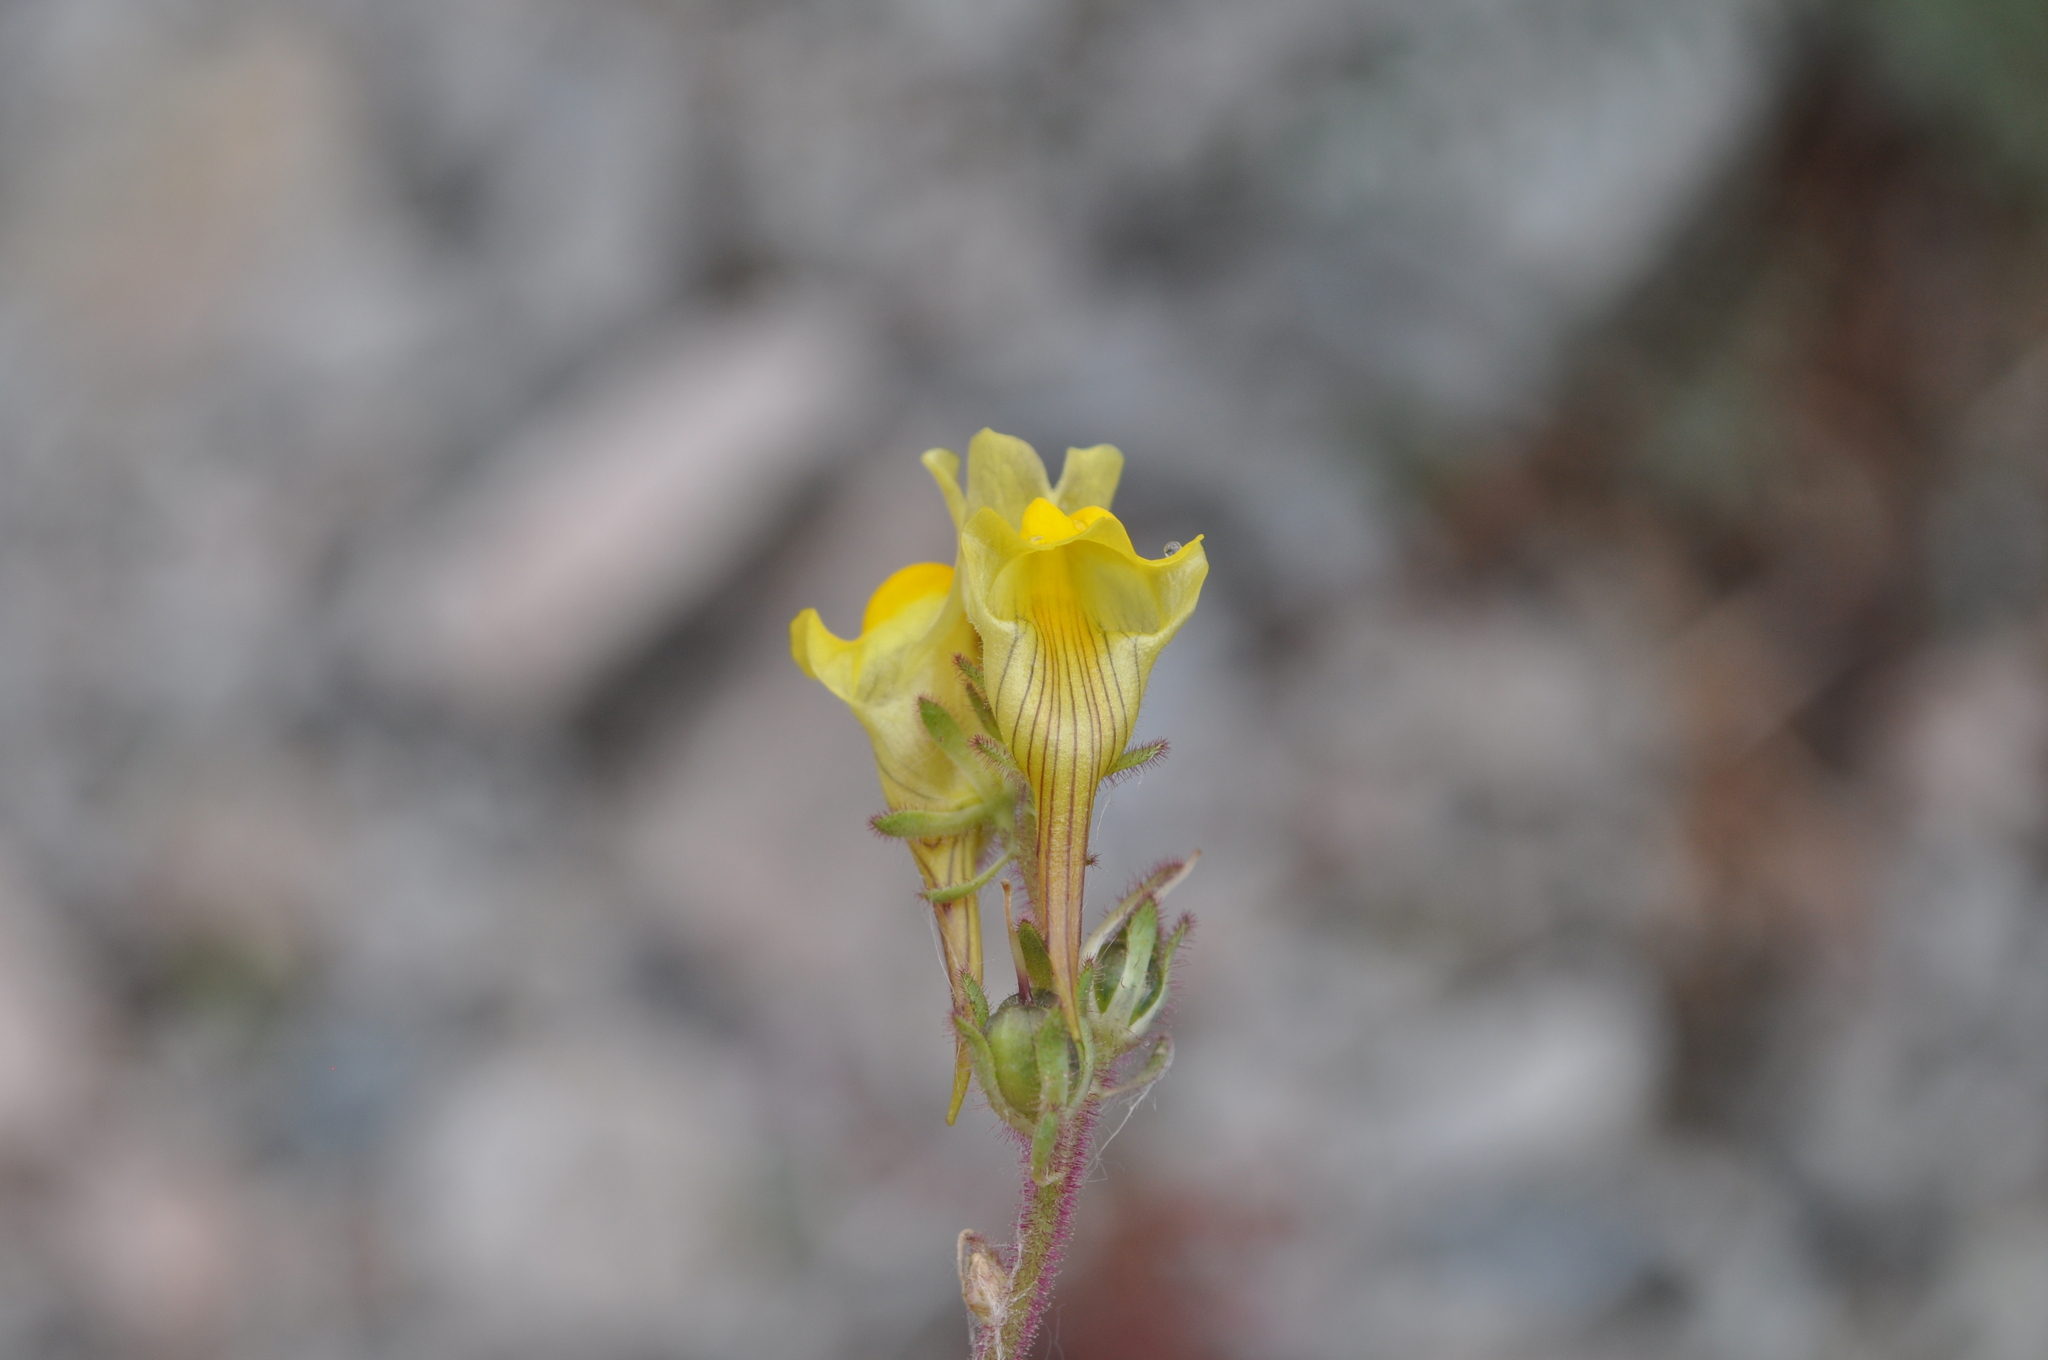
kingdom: Plantae
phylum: Tracheophyta
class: Magnoliopsida
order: Lamiales
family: Plantaginaceae
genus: Linaria
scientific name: Linaria supina
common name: Prostrate toadflax
